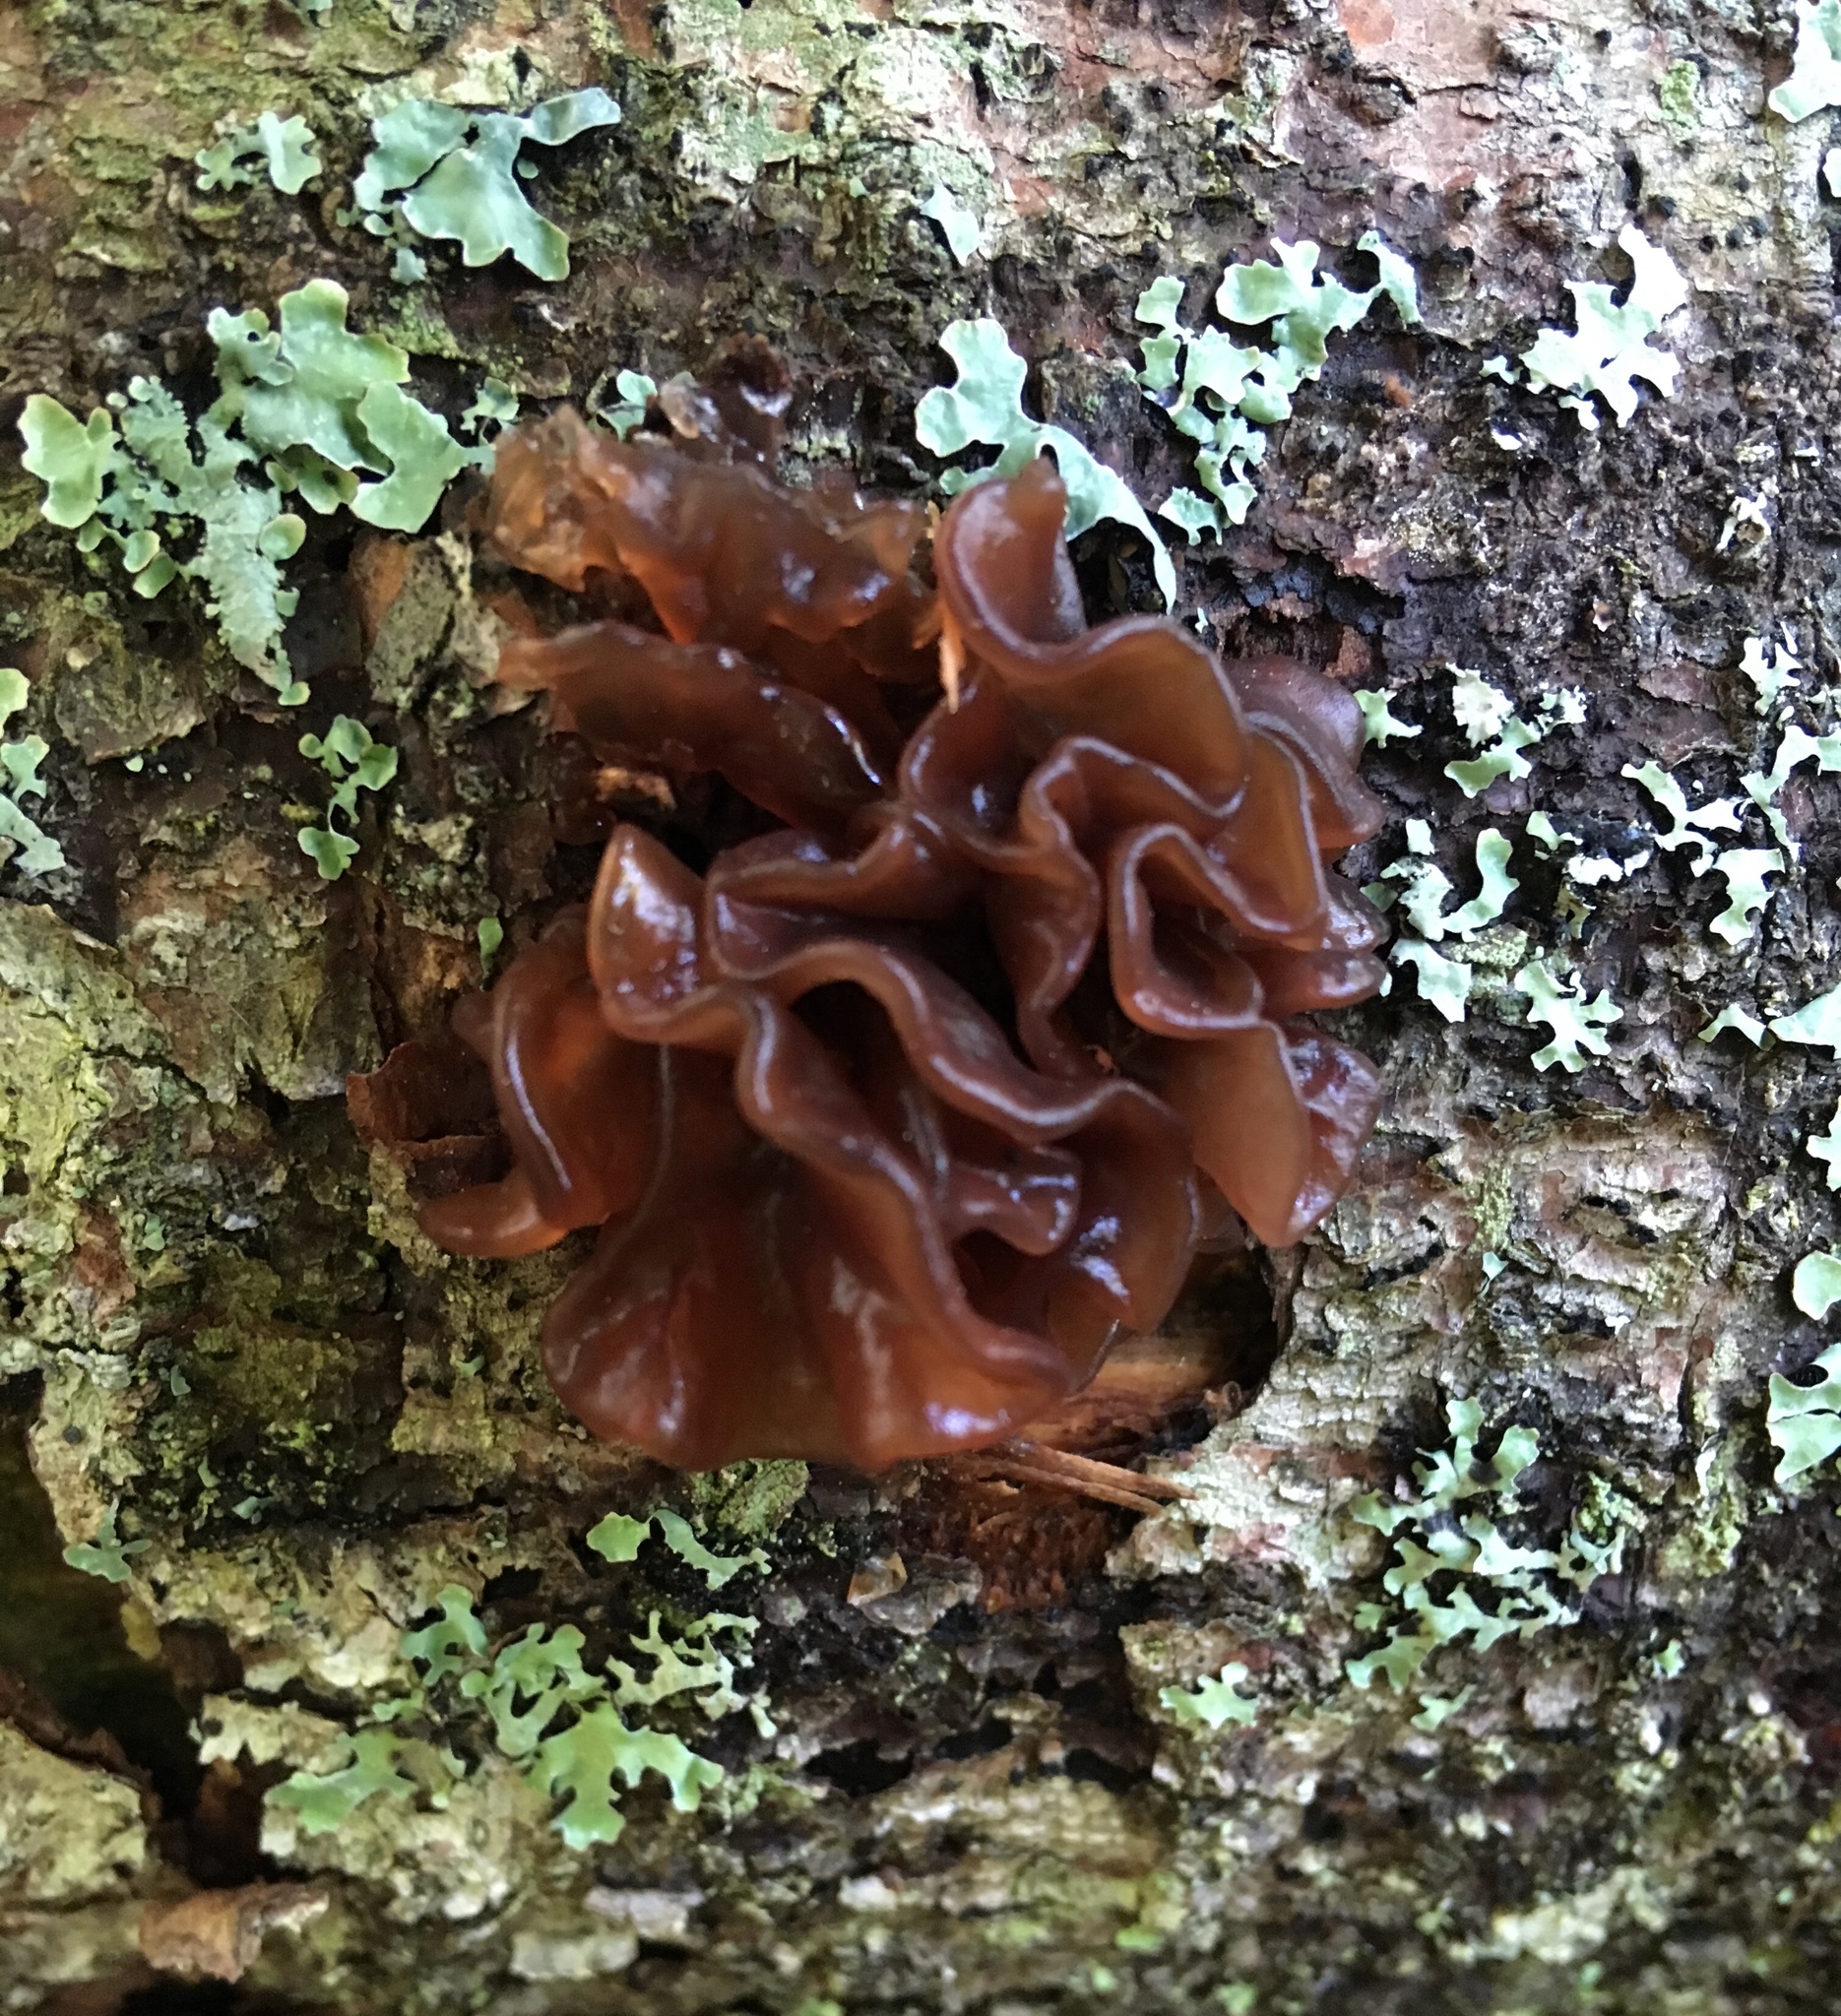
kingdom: Fungi
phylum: Basidiomycota
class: Tremellomycetes
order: Tremellales
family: Tremellaceae
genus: Phaeotremella
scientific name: Phaeotremella foliacea
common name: Leafy brain
